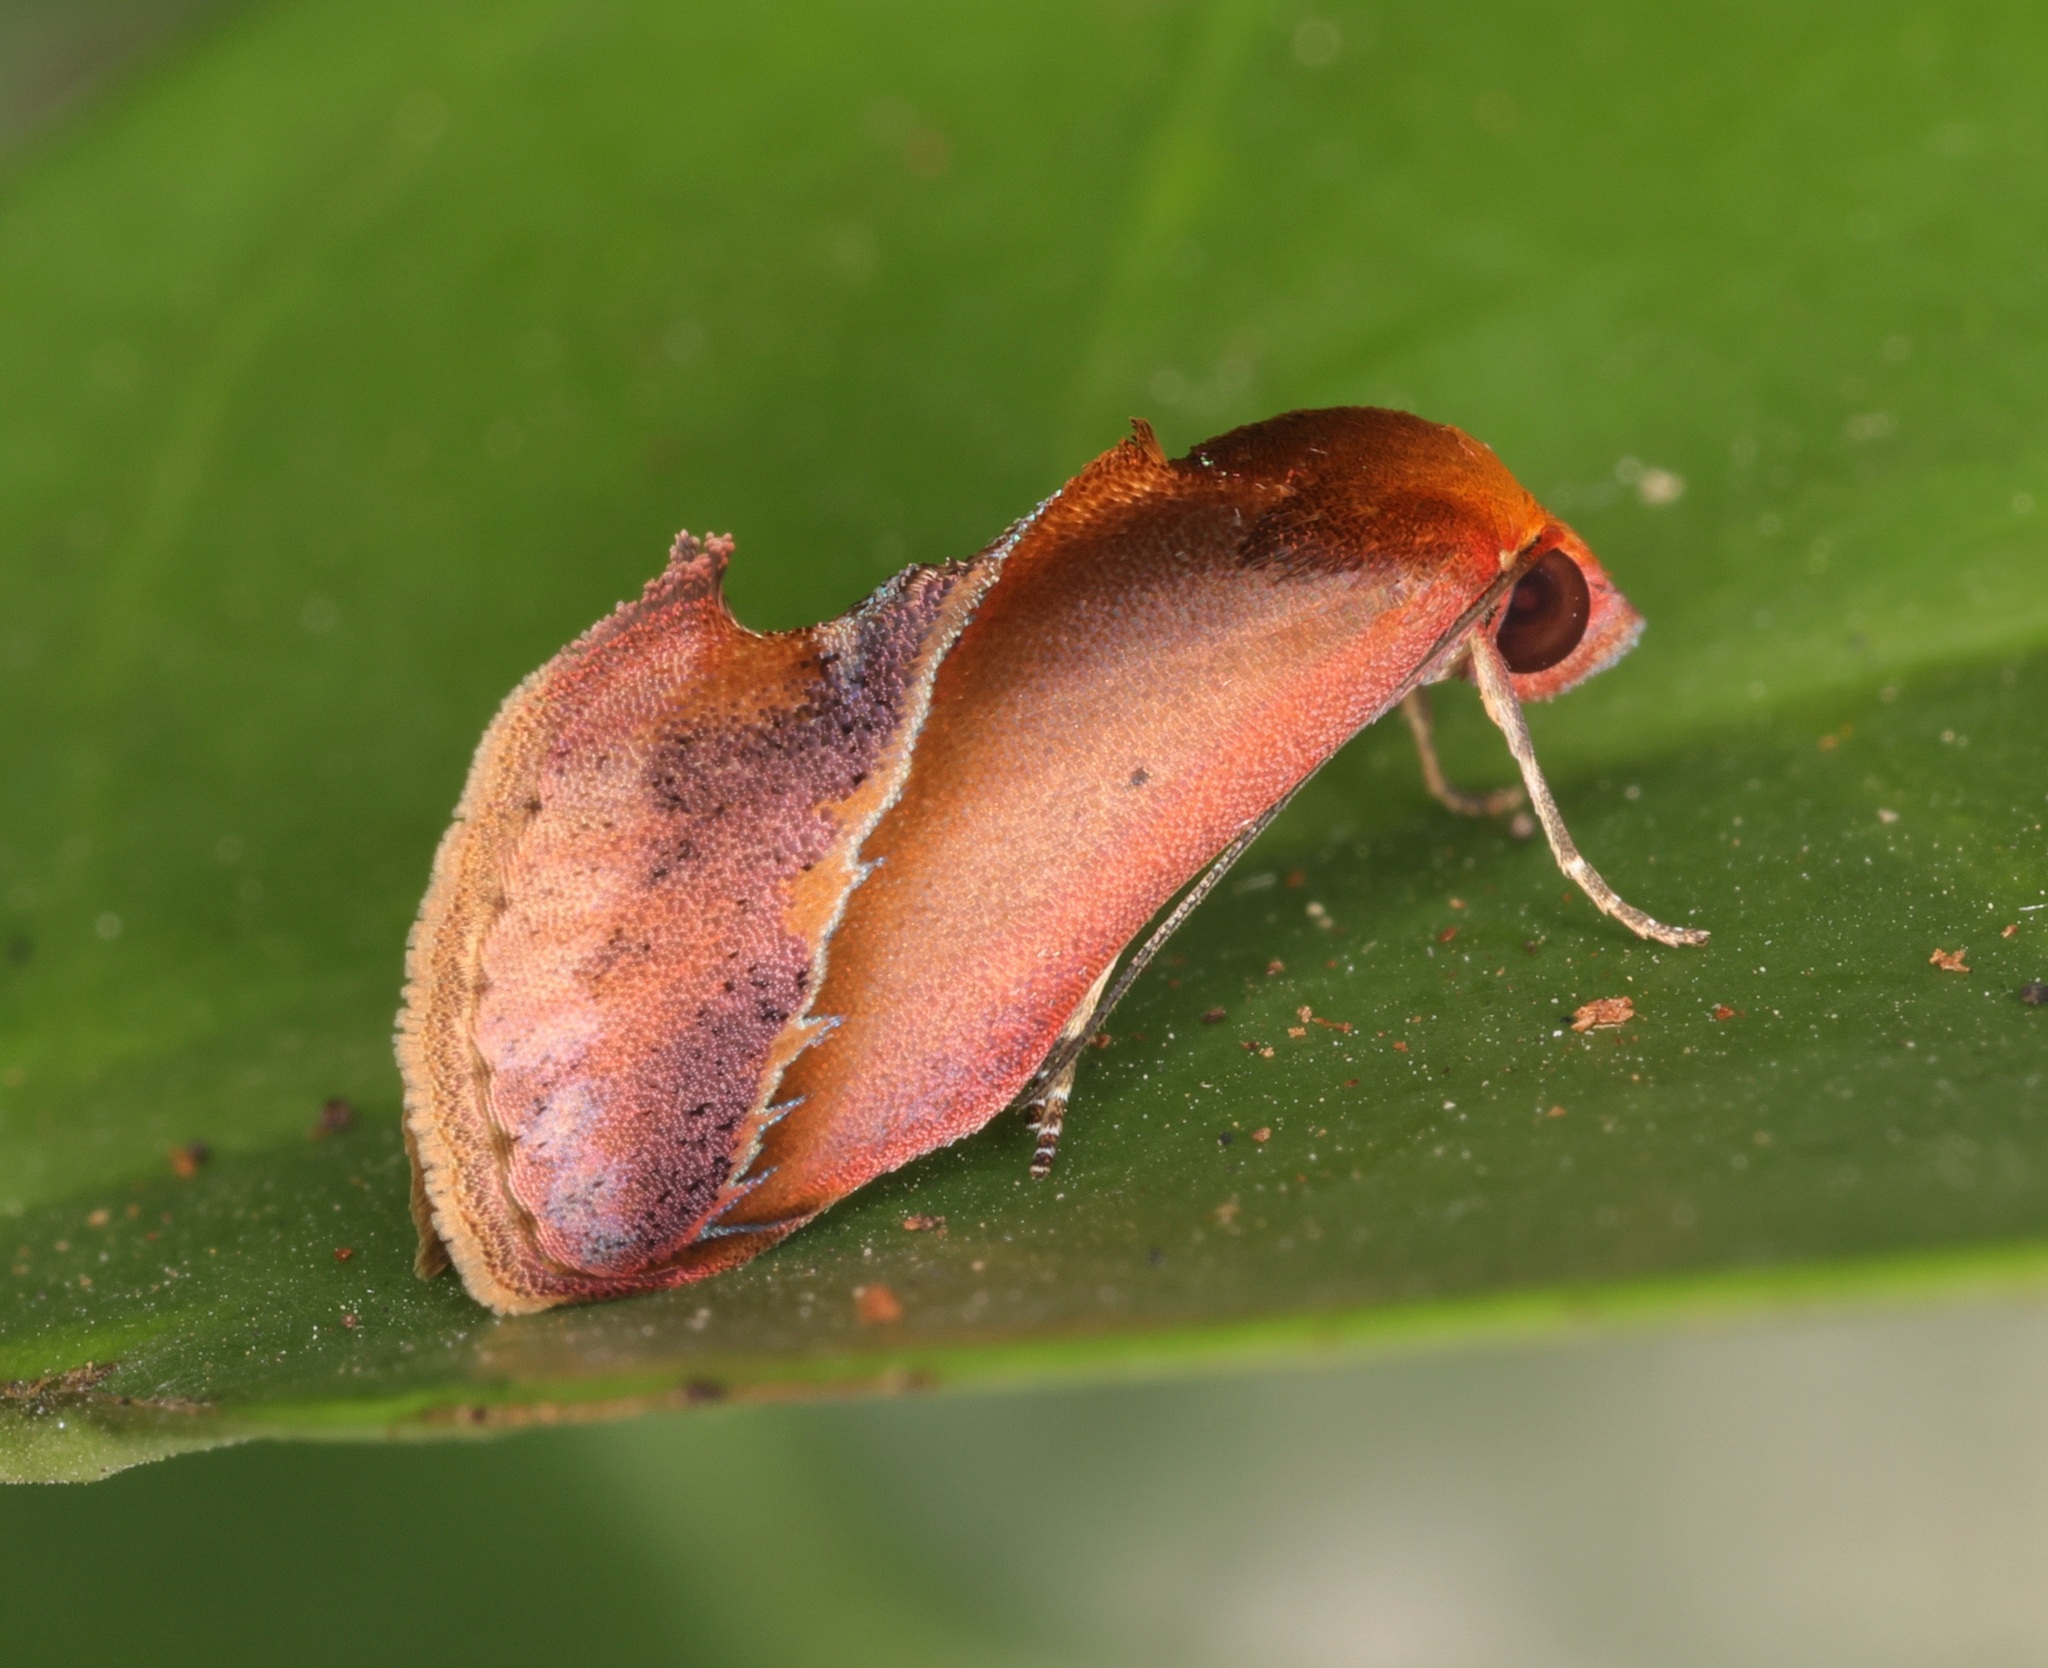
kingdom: Animalia
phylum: Arthropoda
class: Insecta
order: Lepidoptera
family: Erebidae
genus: Arsacia
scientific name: Arsacia rectalis
